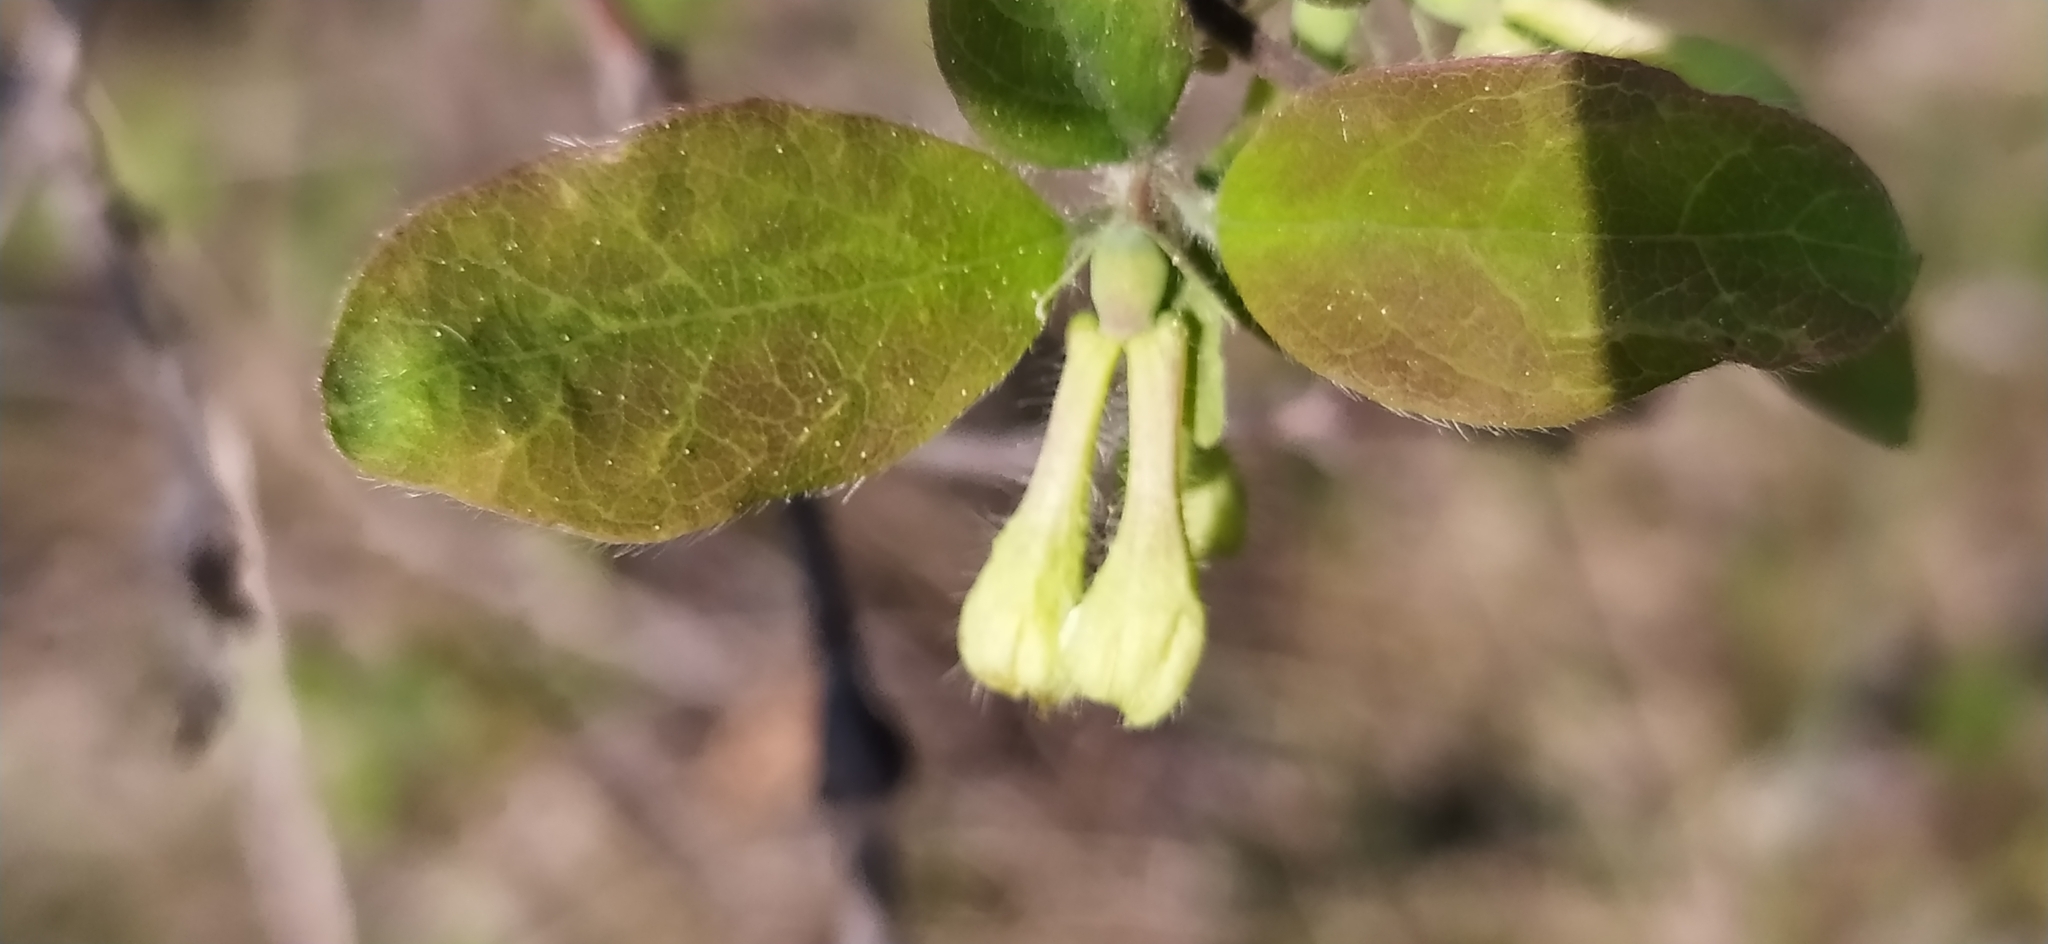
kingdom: Plantae
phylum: Tracheophyta
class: Magnoliopsida
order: Dipsacales
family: Caprifoliaceae
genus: Lonicera
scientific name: Lonicera caerulea
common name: Blue honeysuckle
